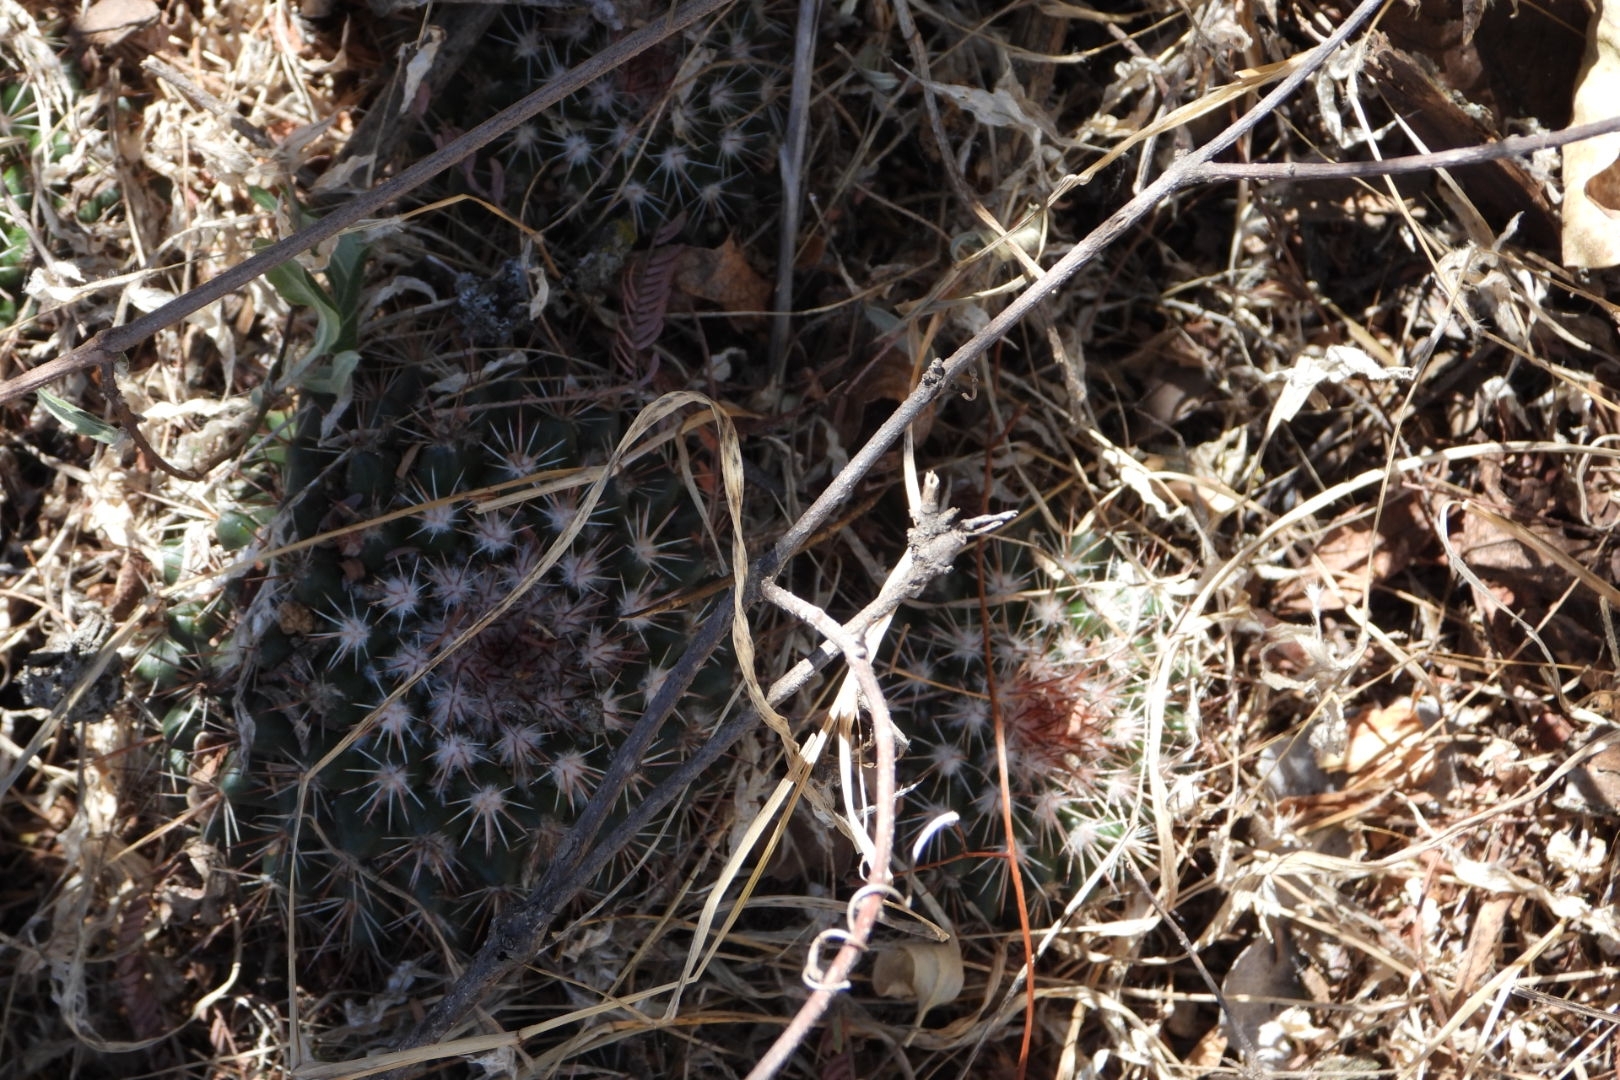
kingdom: Plantae
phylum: Tracheophyta
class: Magnoliopsida
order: Caryophyllales
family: Cactaceae
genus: Mammillaria
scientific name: Mammillaria scrippsiana
